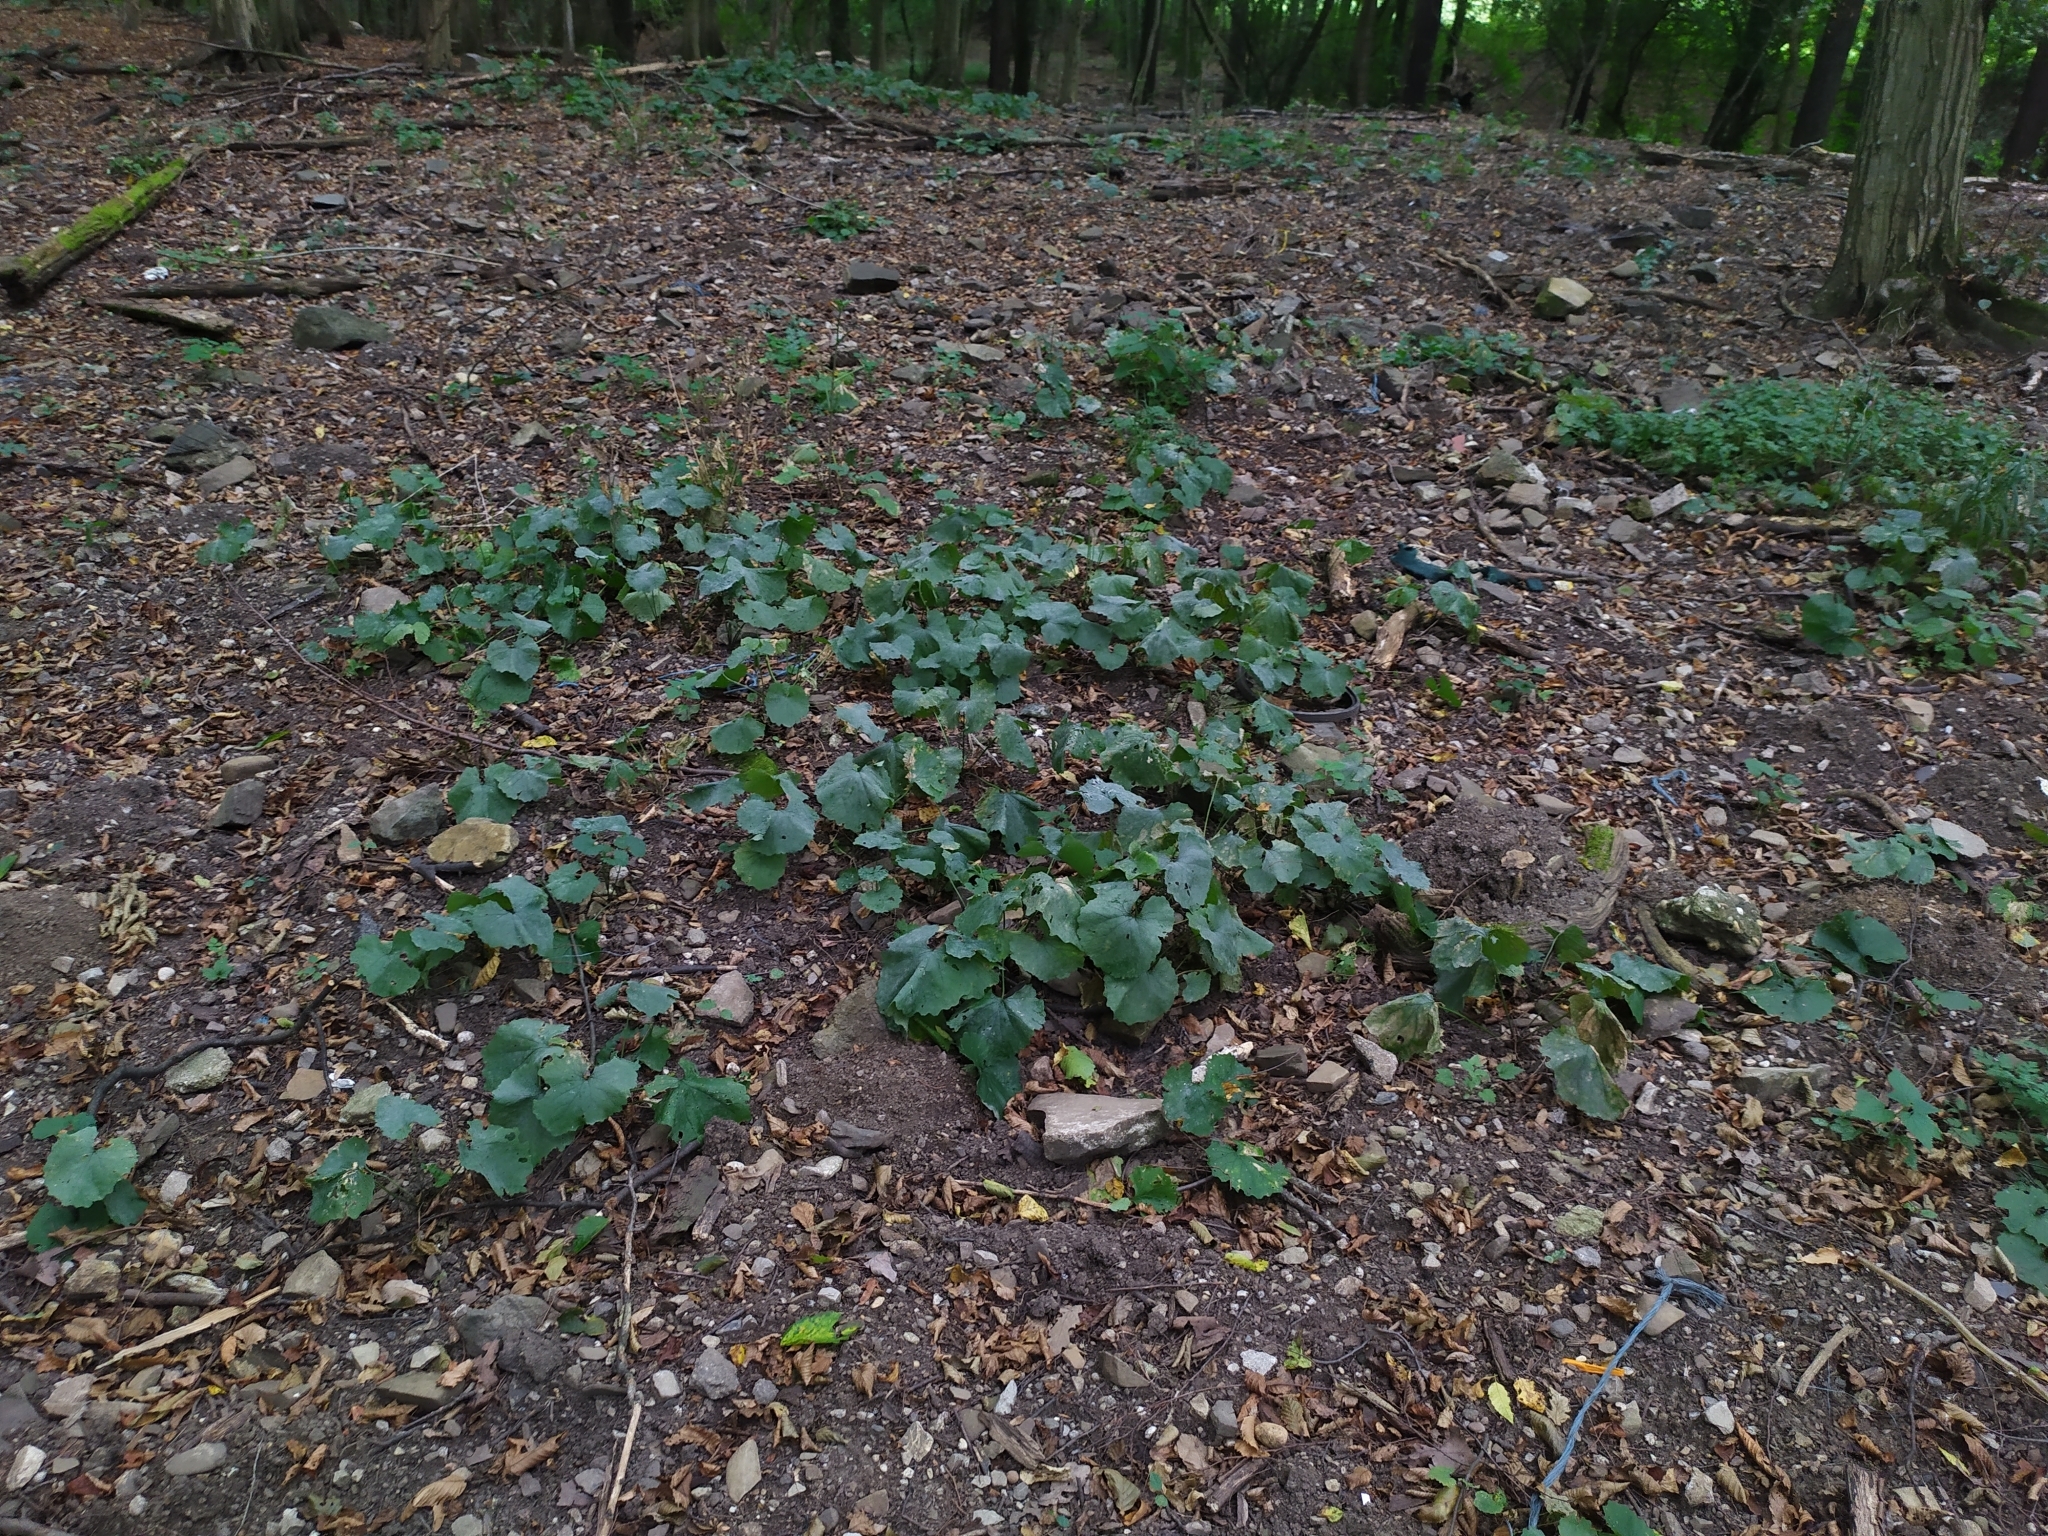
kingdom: Plantae
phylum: Tracheophyta
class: Magnoliopsida
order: Brassicales
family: Brassicaceae
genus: Alliaria
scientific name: Alliaria petiolata
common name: Garlic mustard
